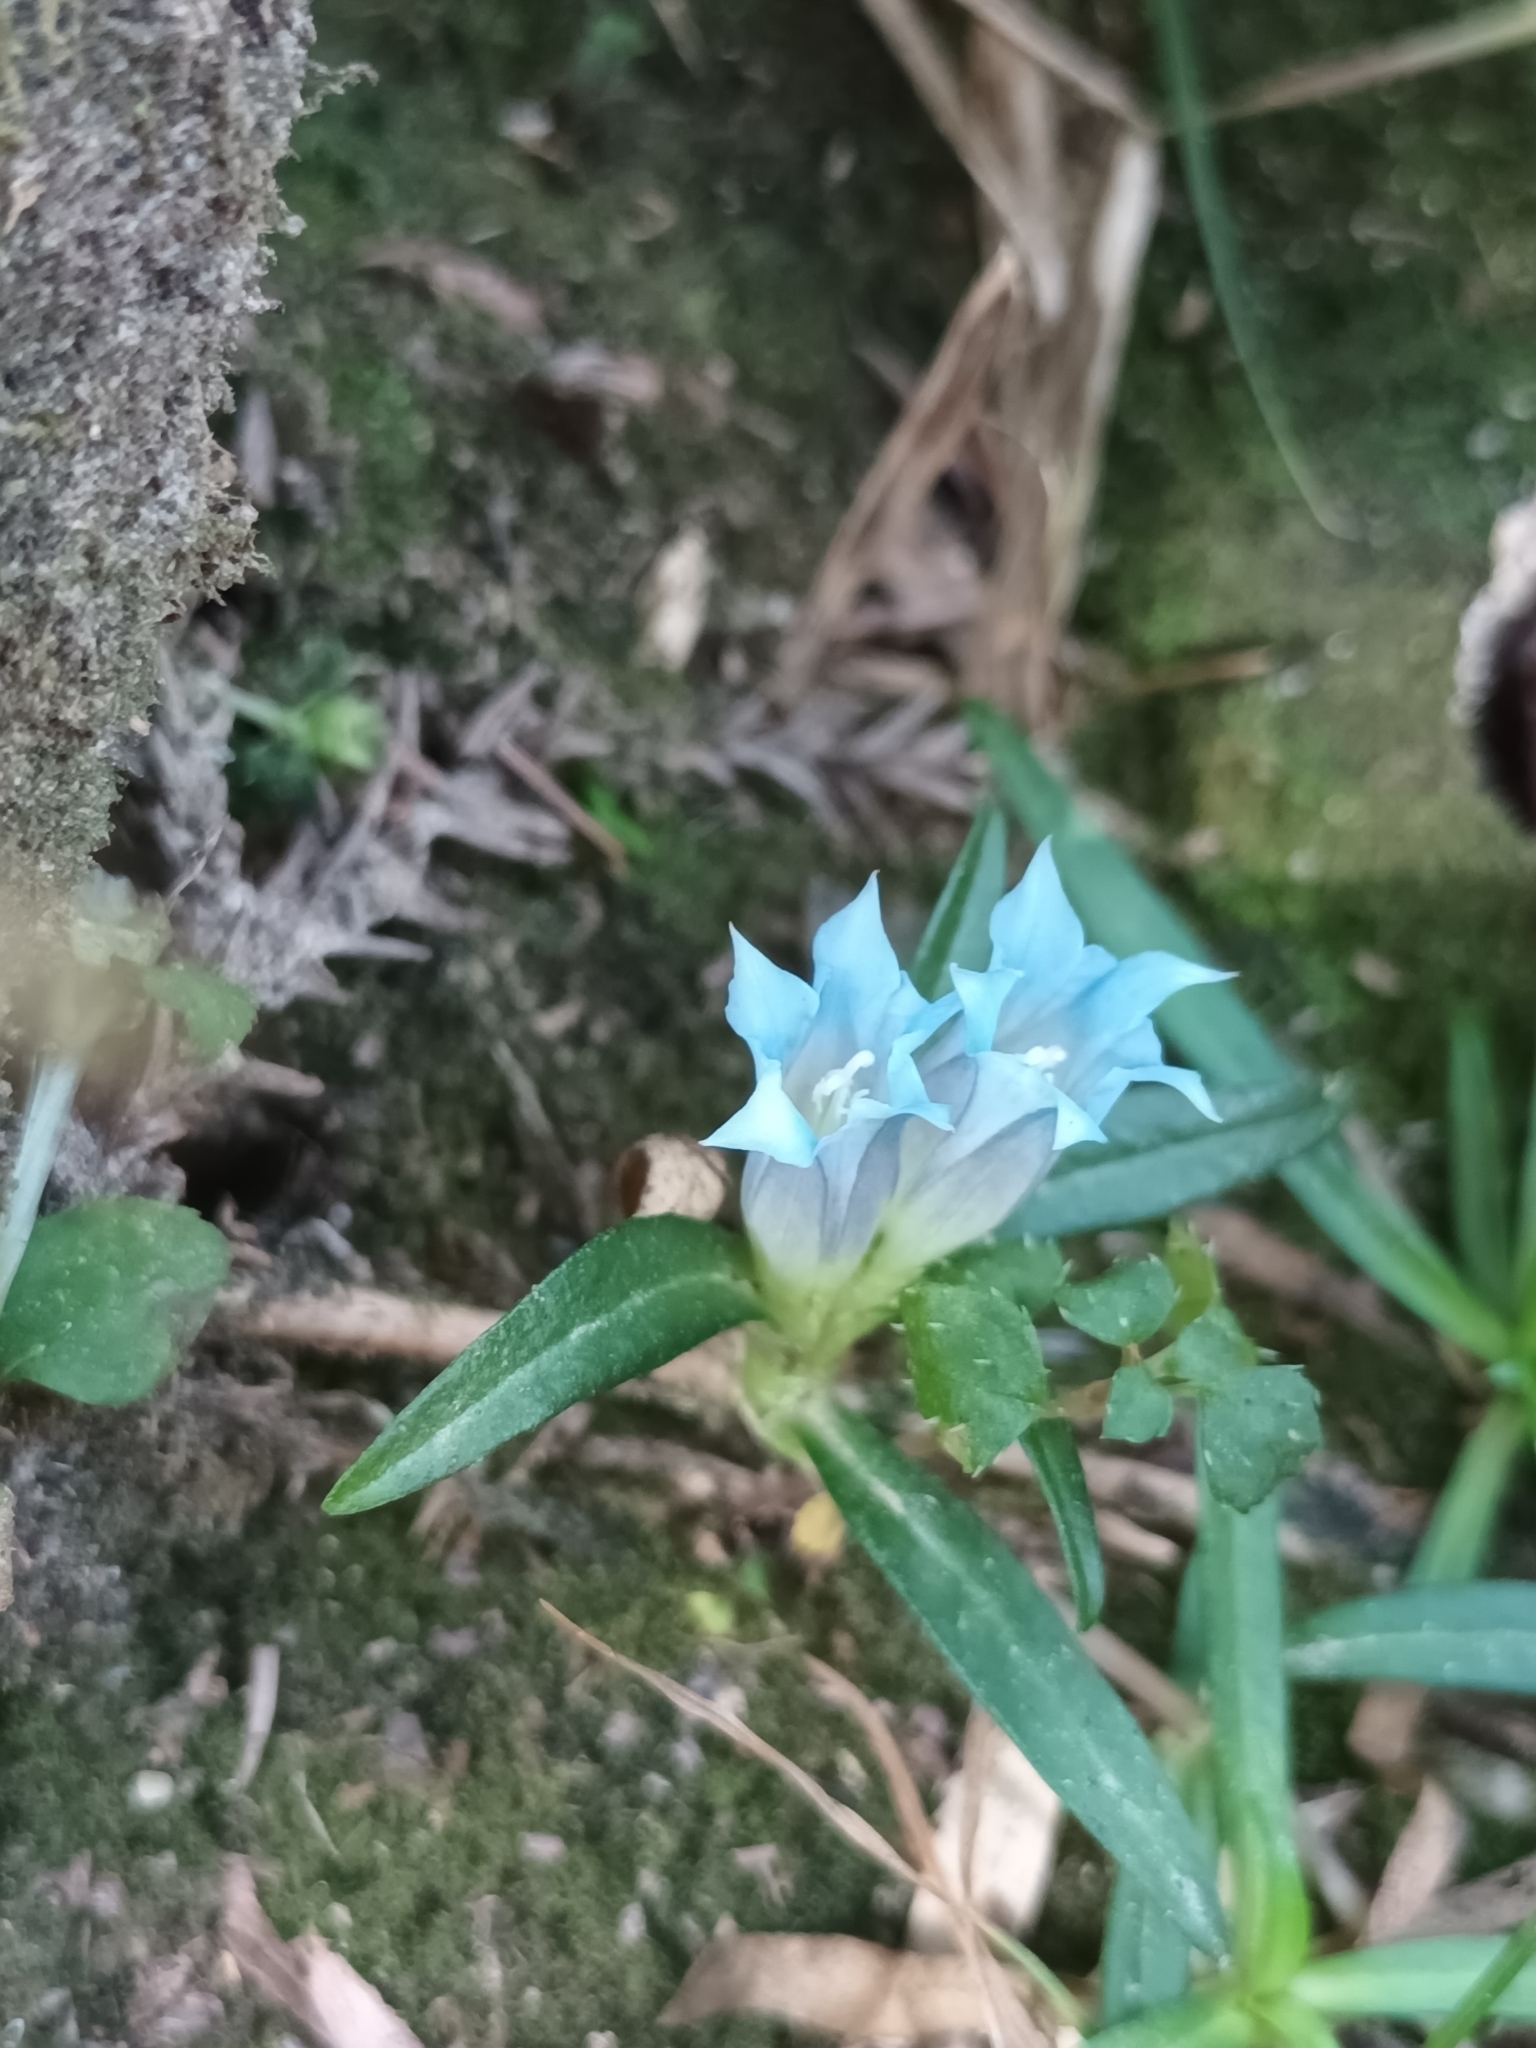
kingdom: Plantae
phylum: Tracheophyta
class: Magnoliopsida
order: Gentianales
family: Gentianaceae
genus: Gentiana
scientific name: Gentiana davidii
